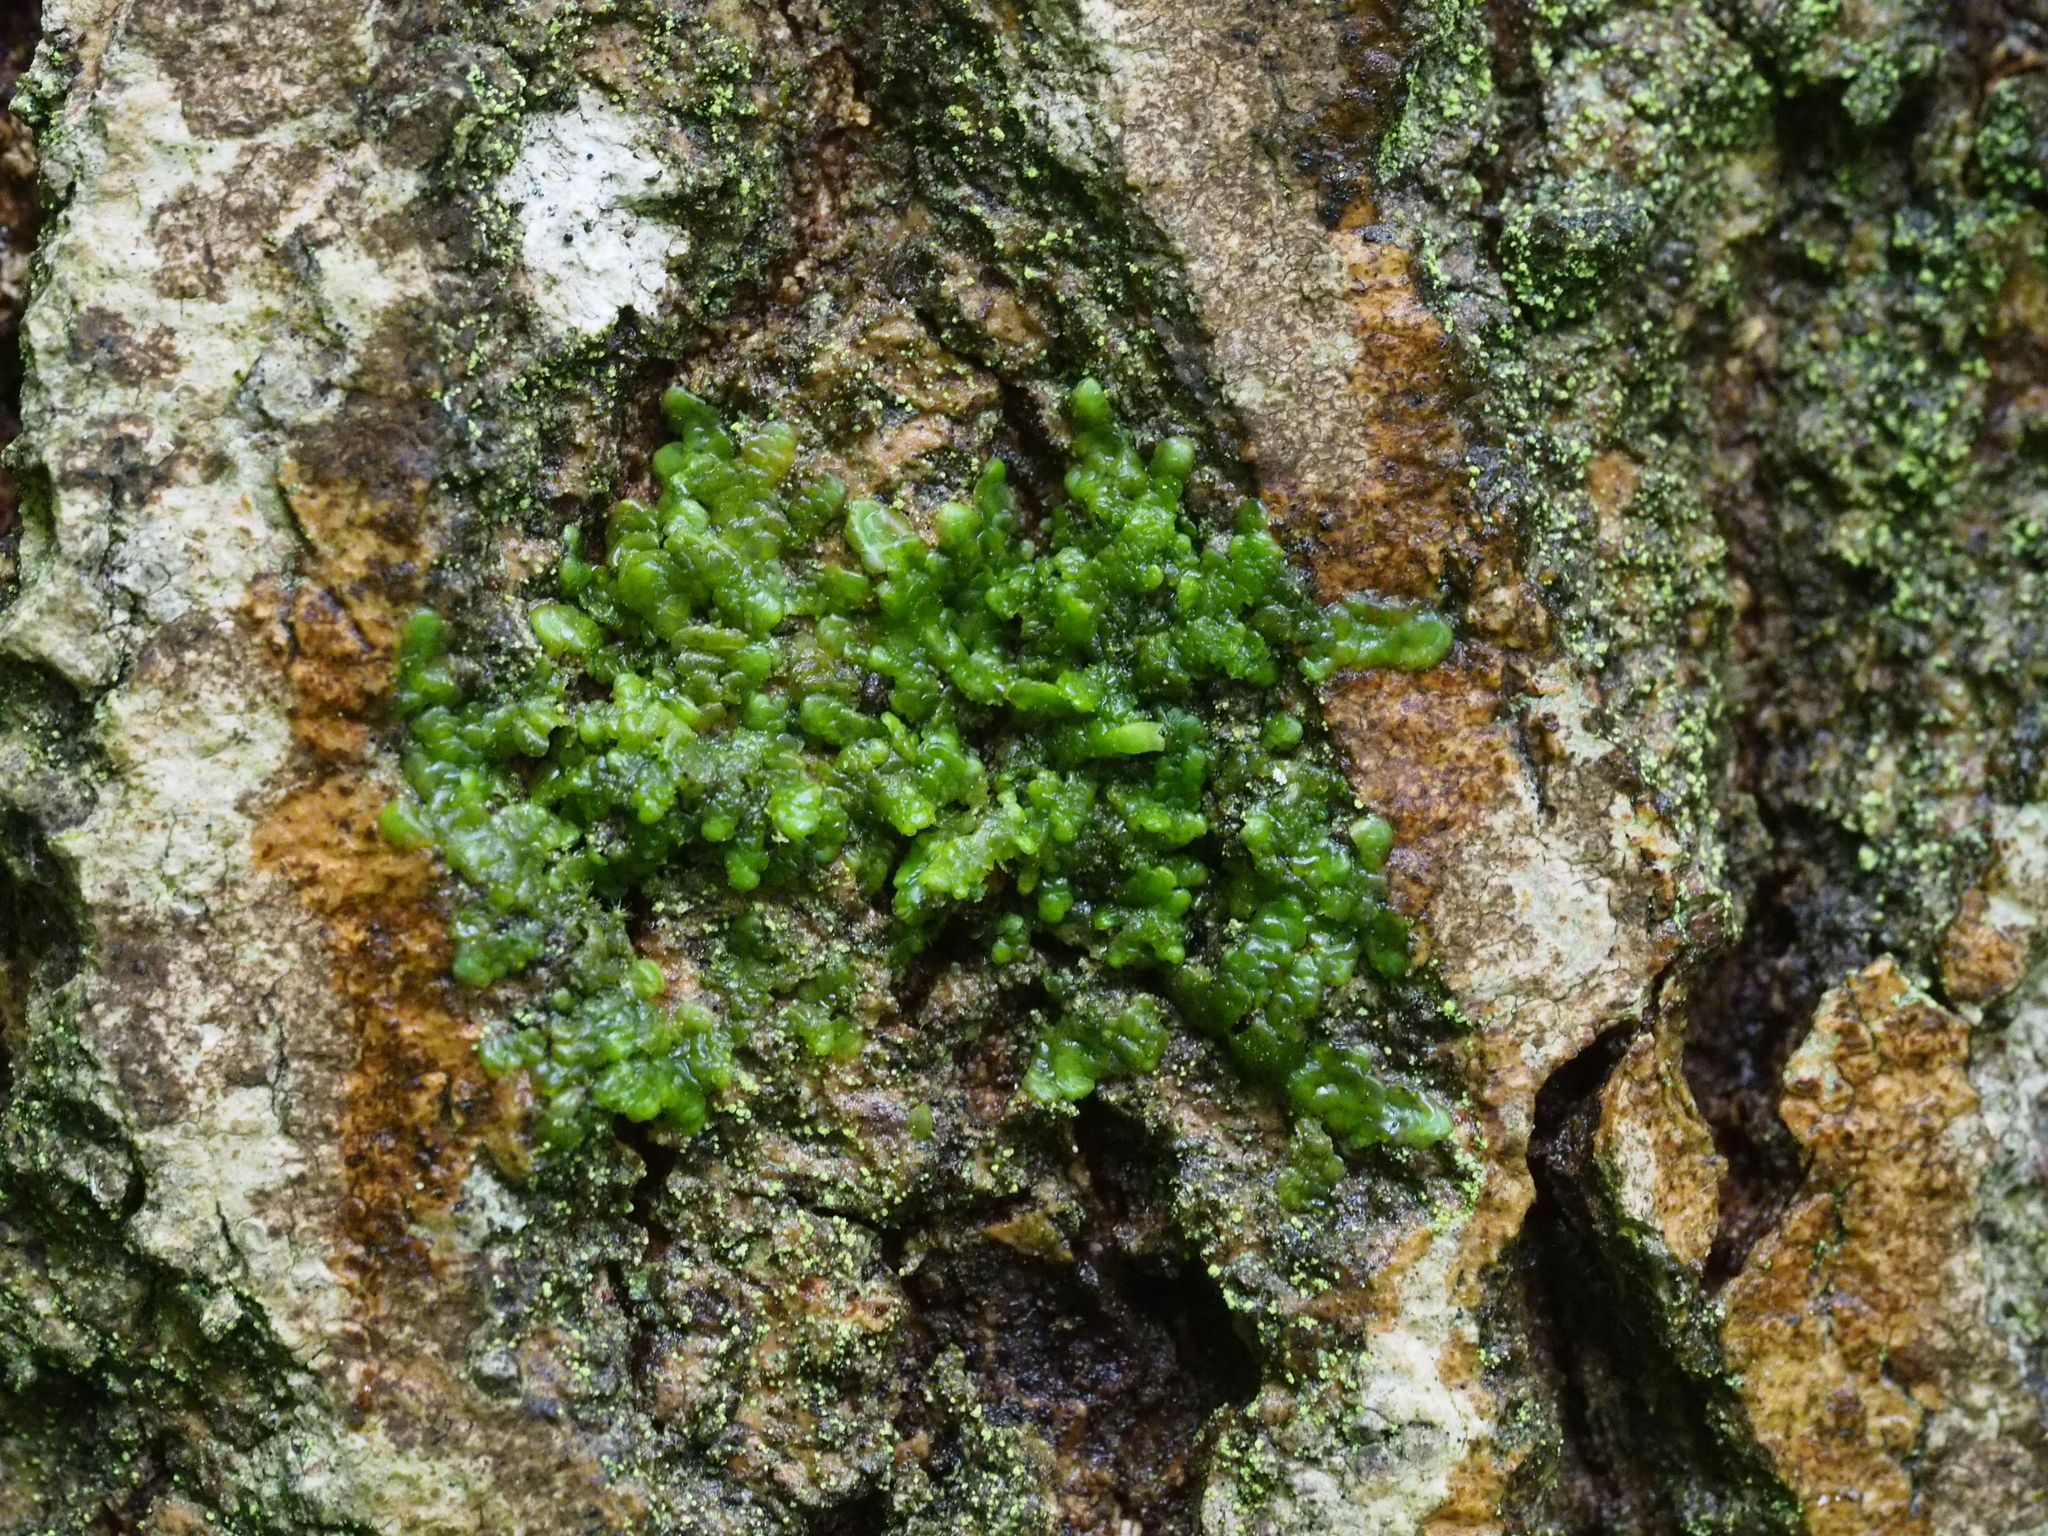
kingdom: Plantae
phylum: Marchantiophyta
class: Jungermanniopsida
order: Porellales
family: Radulaceae
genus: Radula
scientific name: Radula complanata
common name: Flat-leaved scalewort
